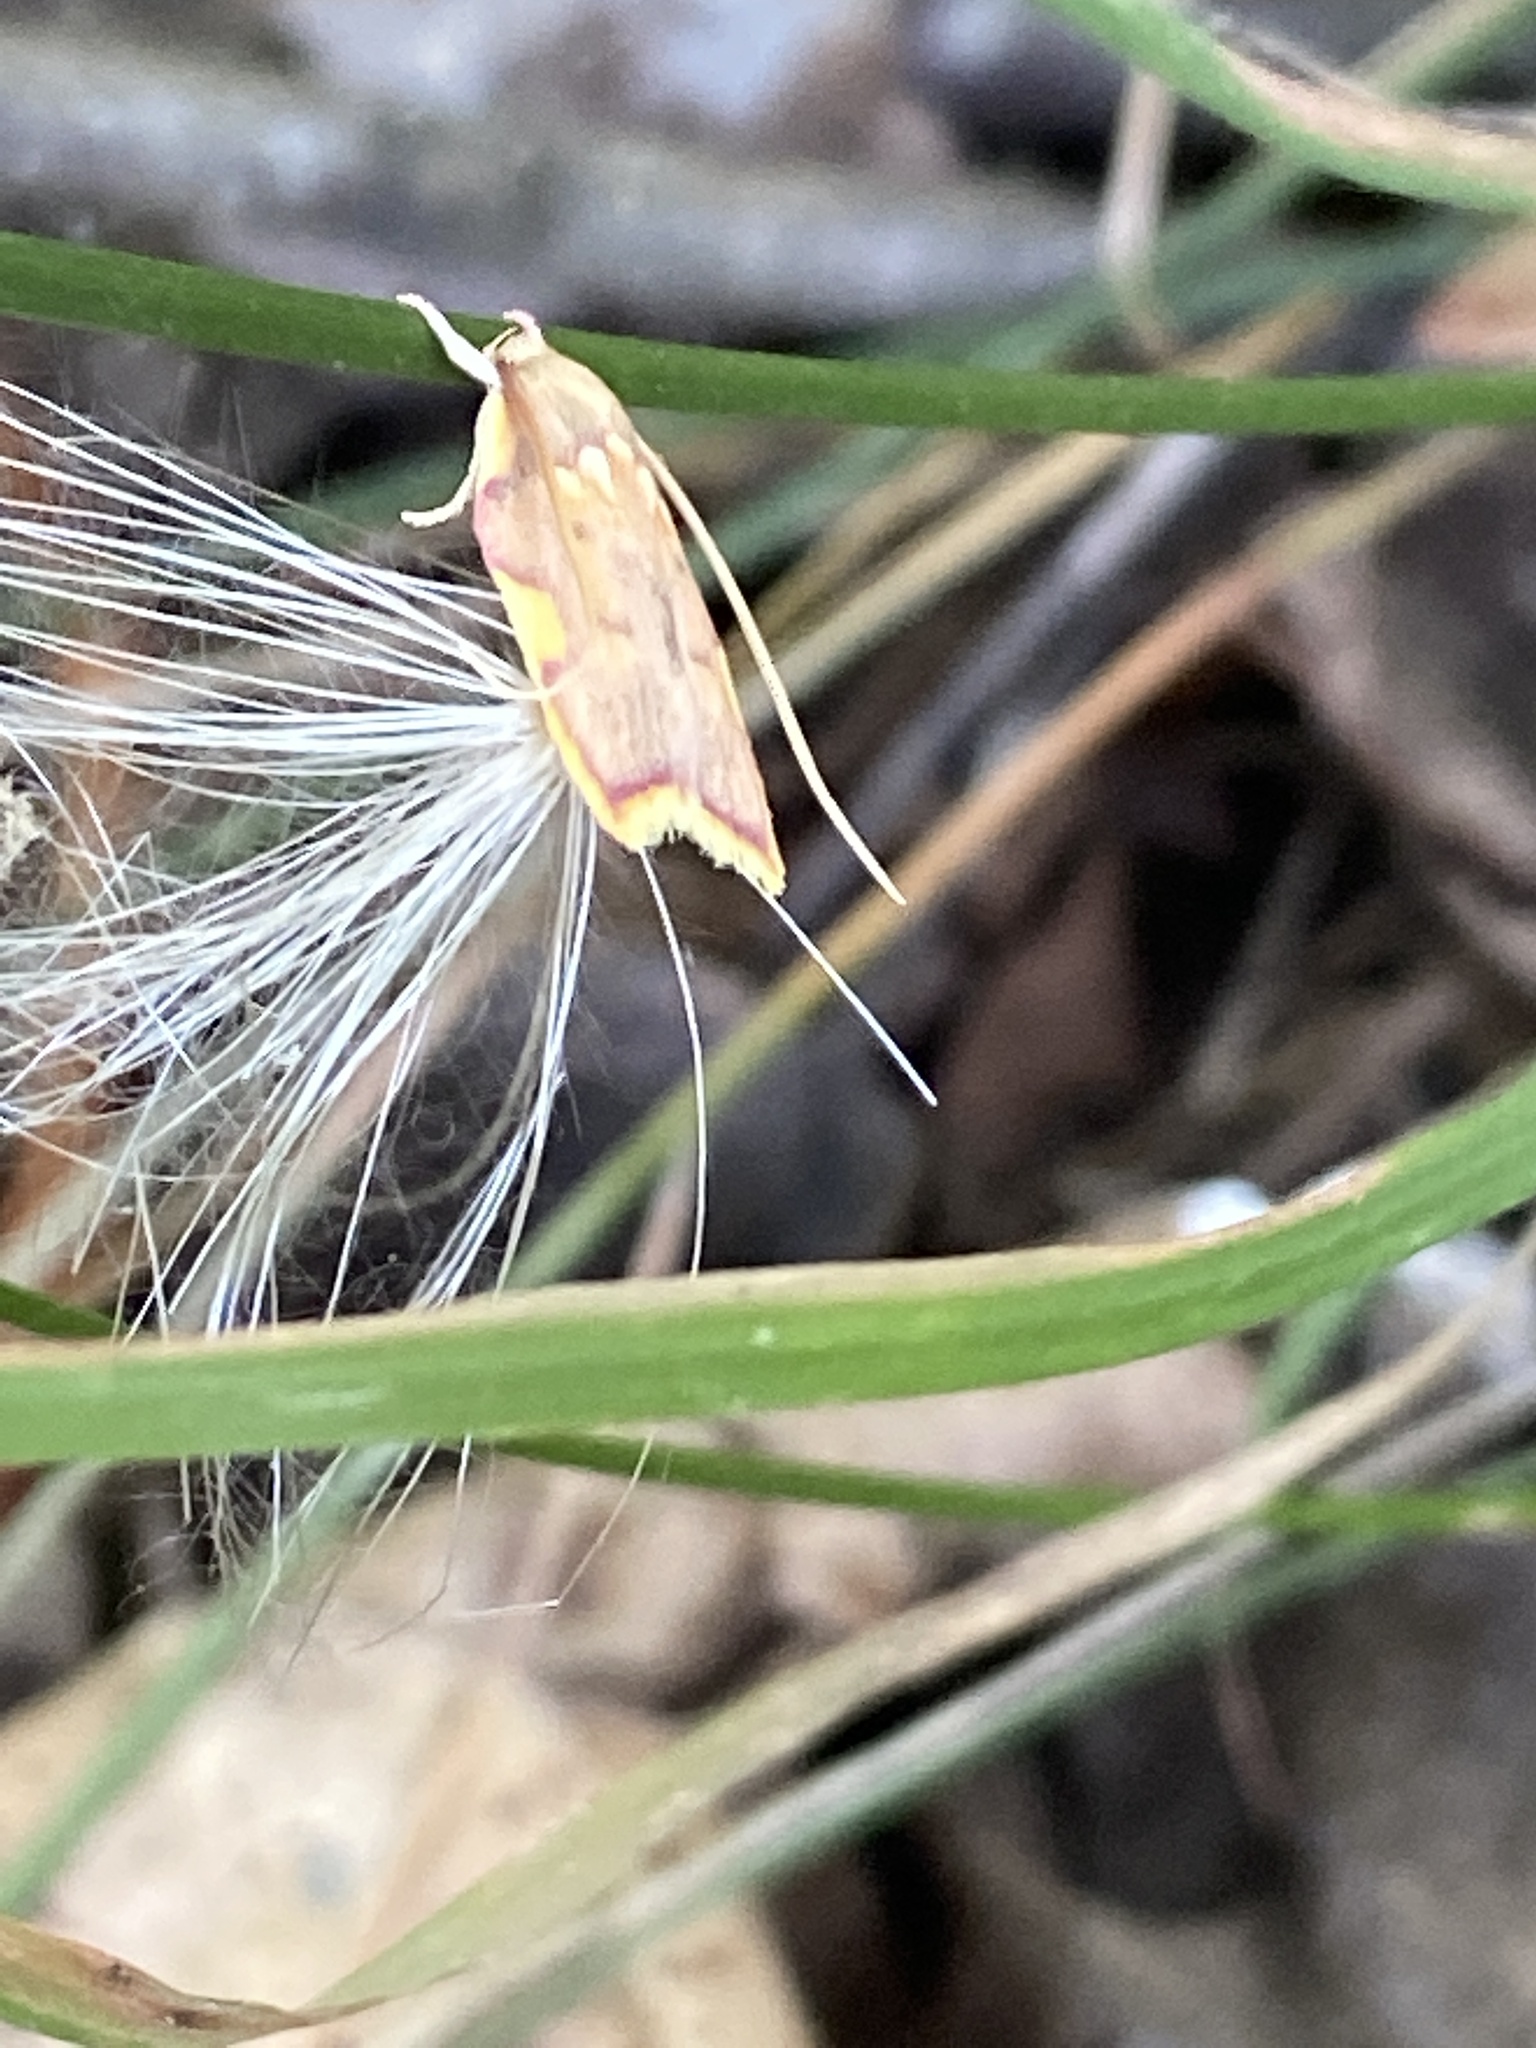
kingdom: Animalia
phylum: Arthropoda
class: Insecta
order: Lepidoptera
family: Peleopodidae
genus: Carcina
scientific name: Carcina quercana
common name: Moth
